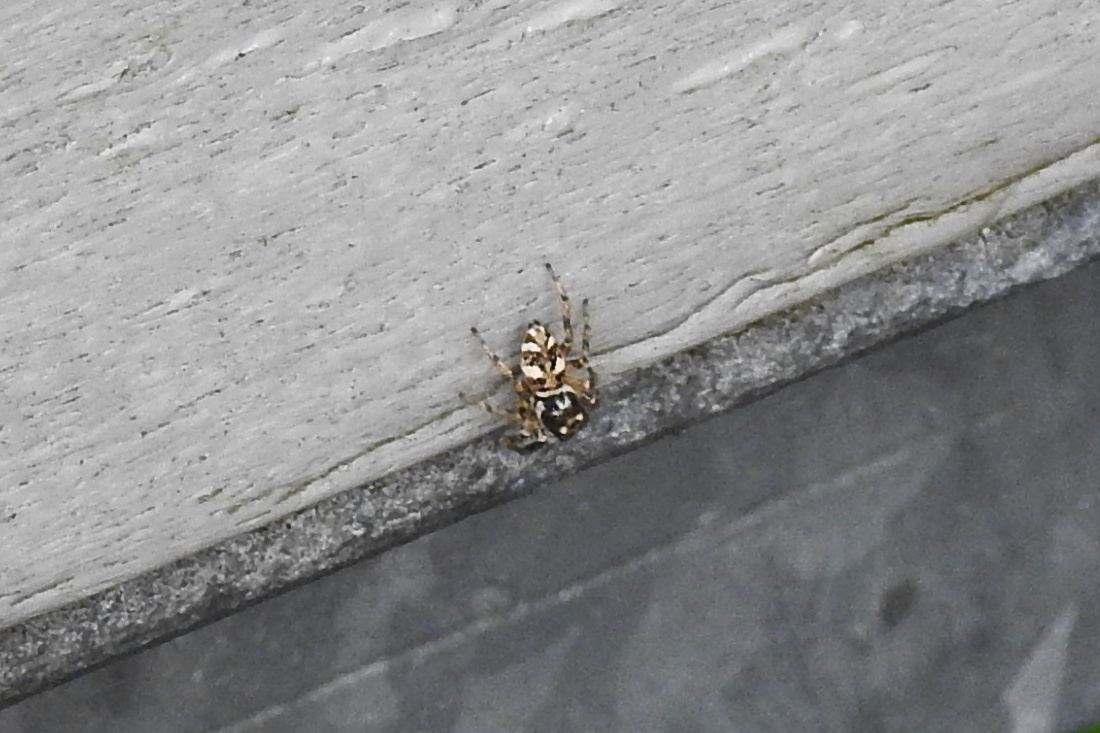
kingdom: Animalia
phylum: Arthropoda
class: Arachnida
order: Araneae
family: Salticidae
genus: Salticus
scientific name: Salticus scenicus
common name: Zebra jumper
